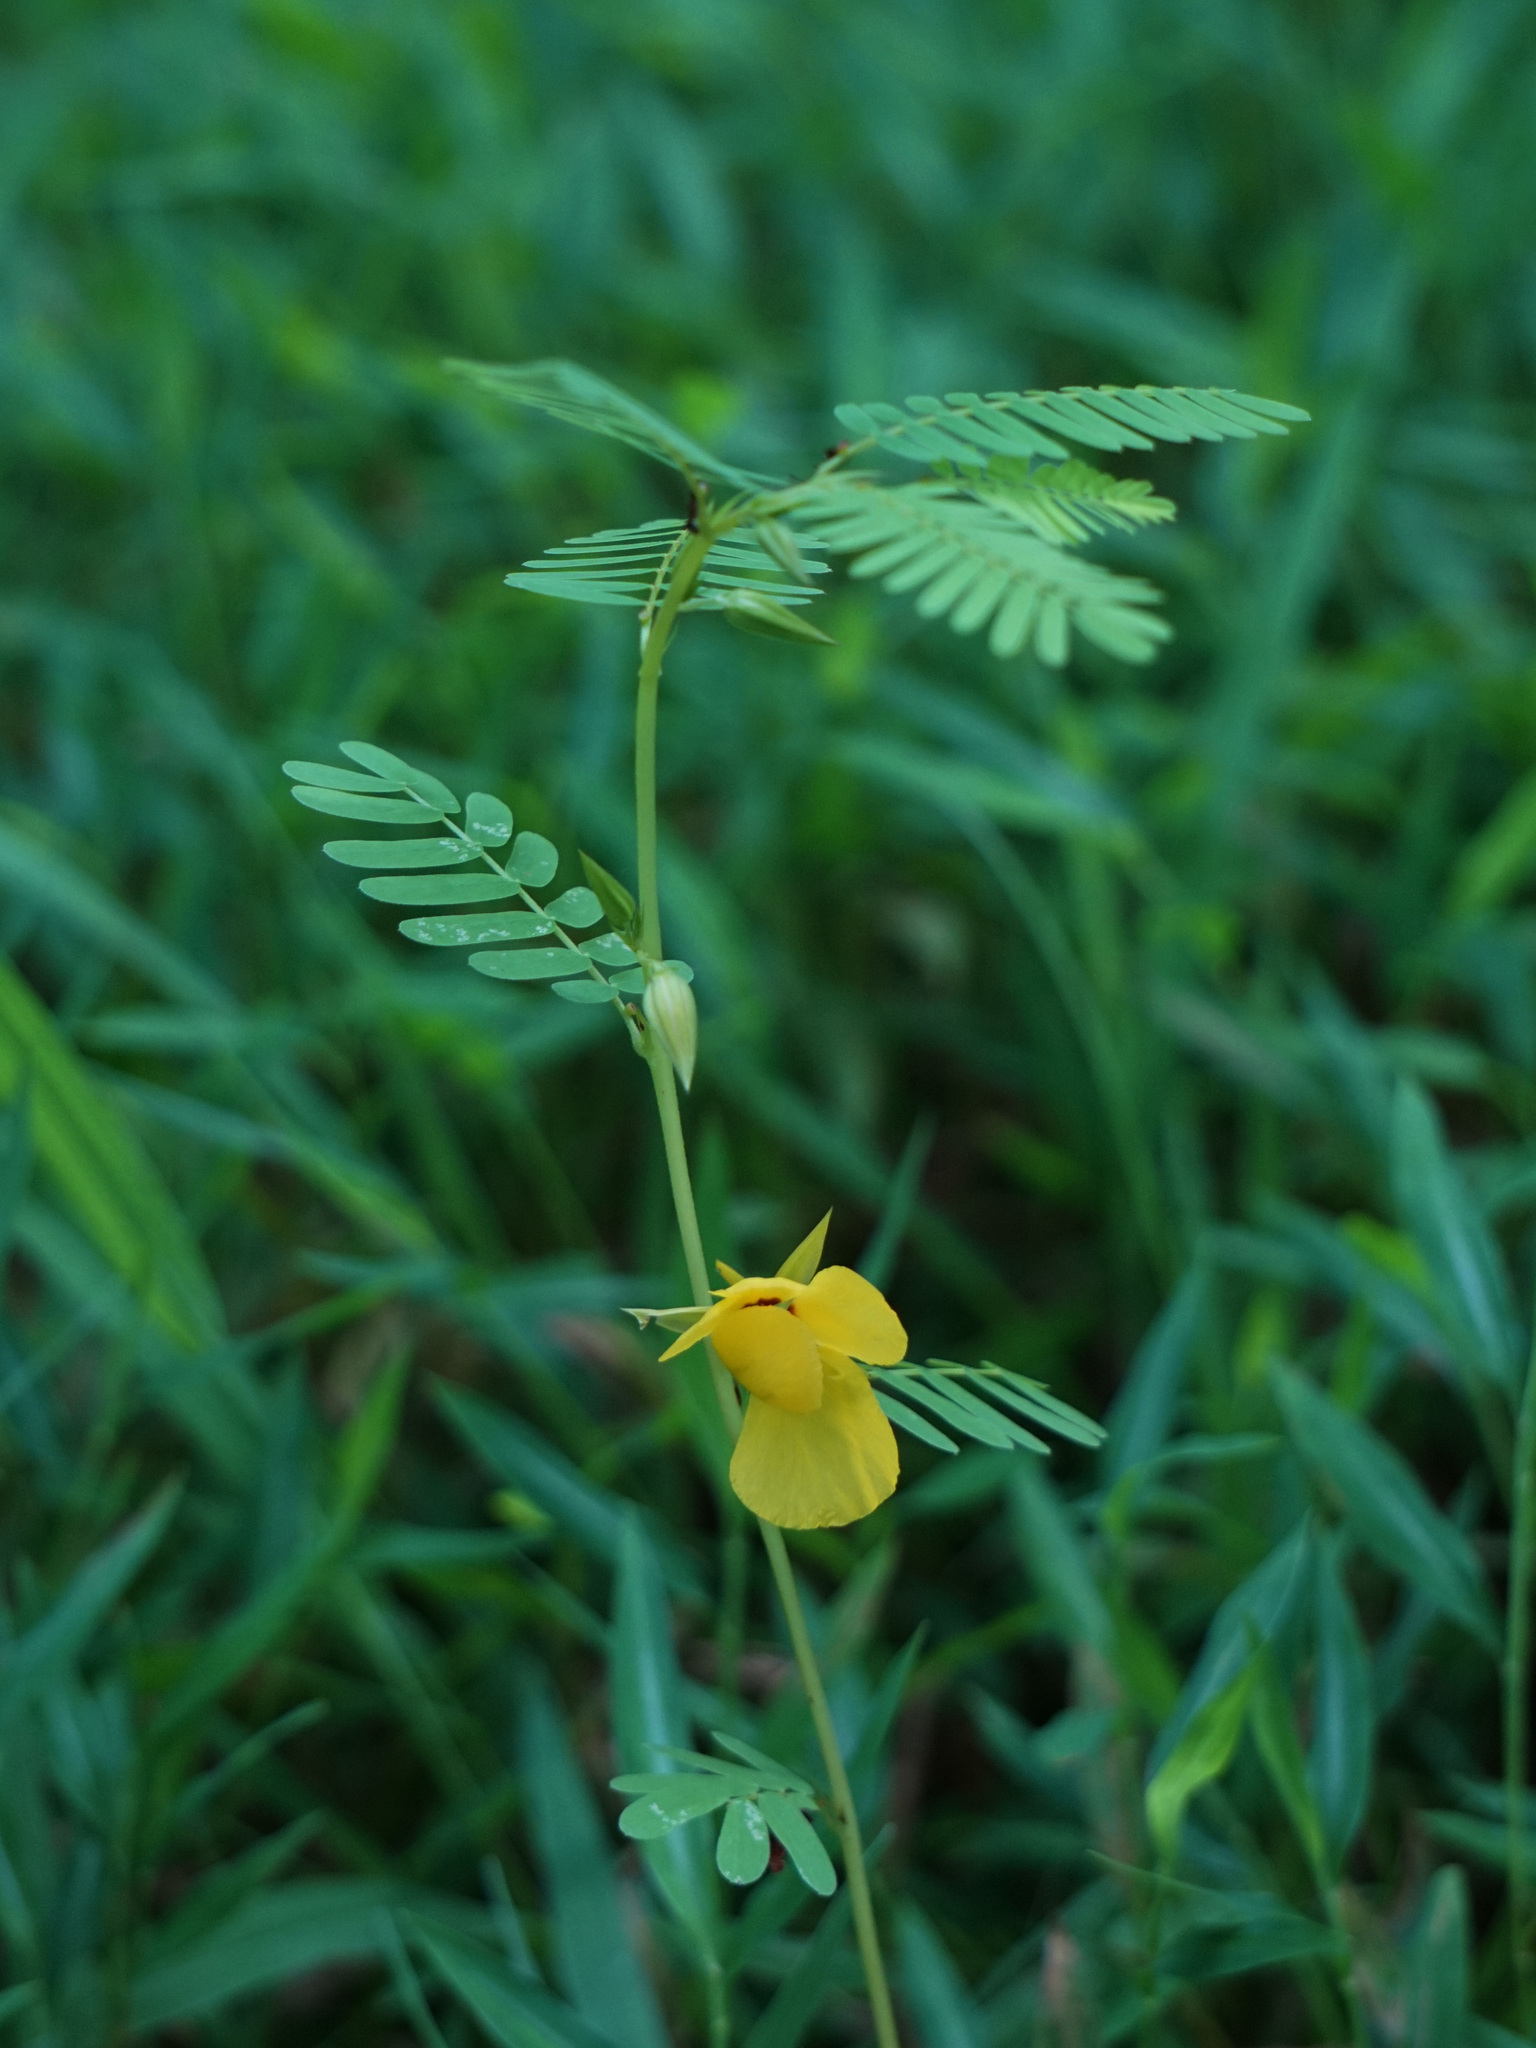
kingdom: Plantae
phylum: Tracheophyta
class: Magnoliopsida
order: Fabales
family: Fabaceae
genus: Chamaecrista
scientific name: Chamaecrista fasciculata
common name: Golden cassia
